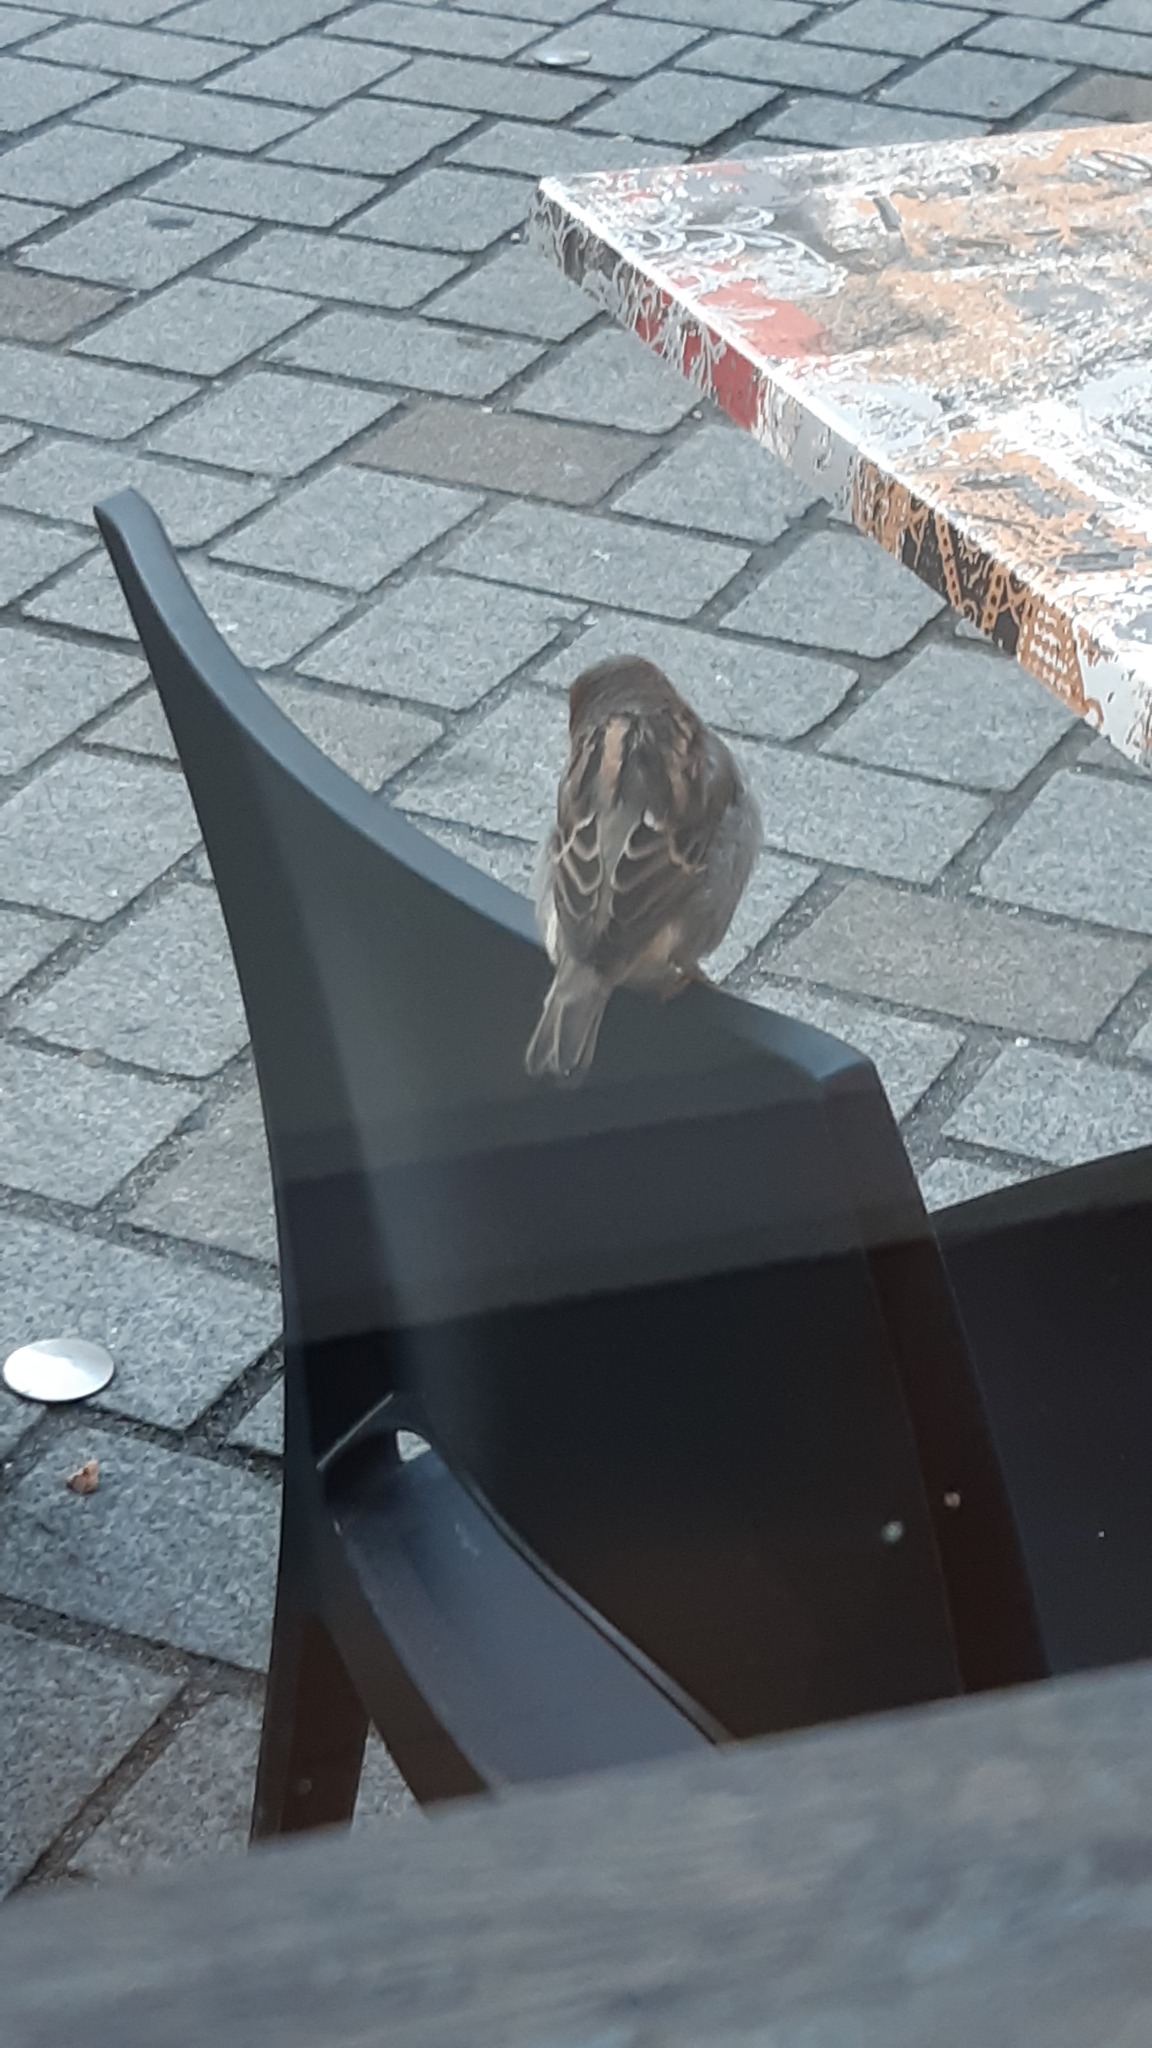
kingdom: Animalia
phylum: Chordata
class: Aves
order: Passeriformes
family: Passeridae
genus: Passer
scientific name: Passer domesticus
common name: House sparrow
